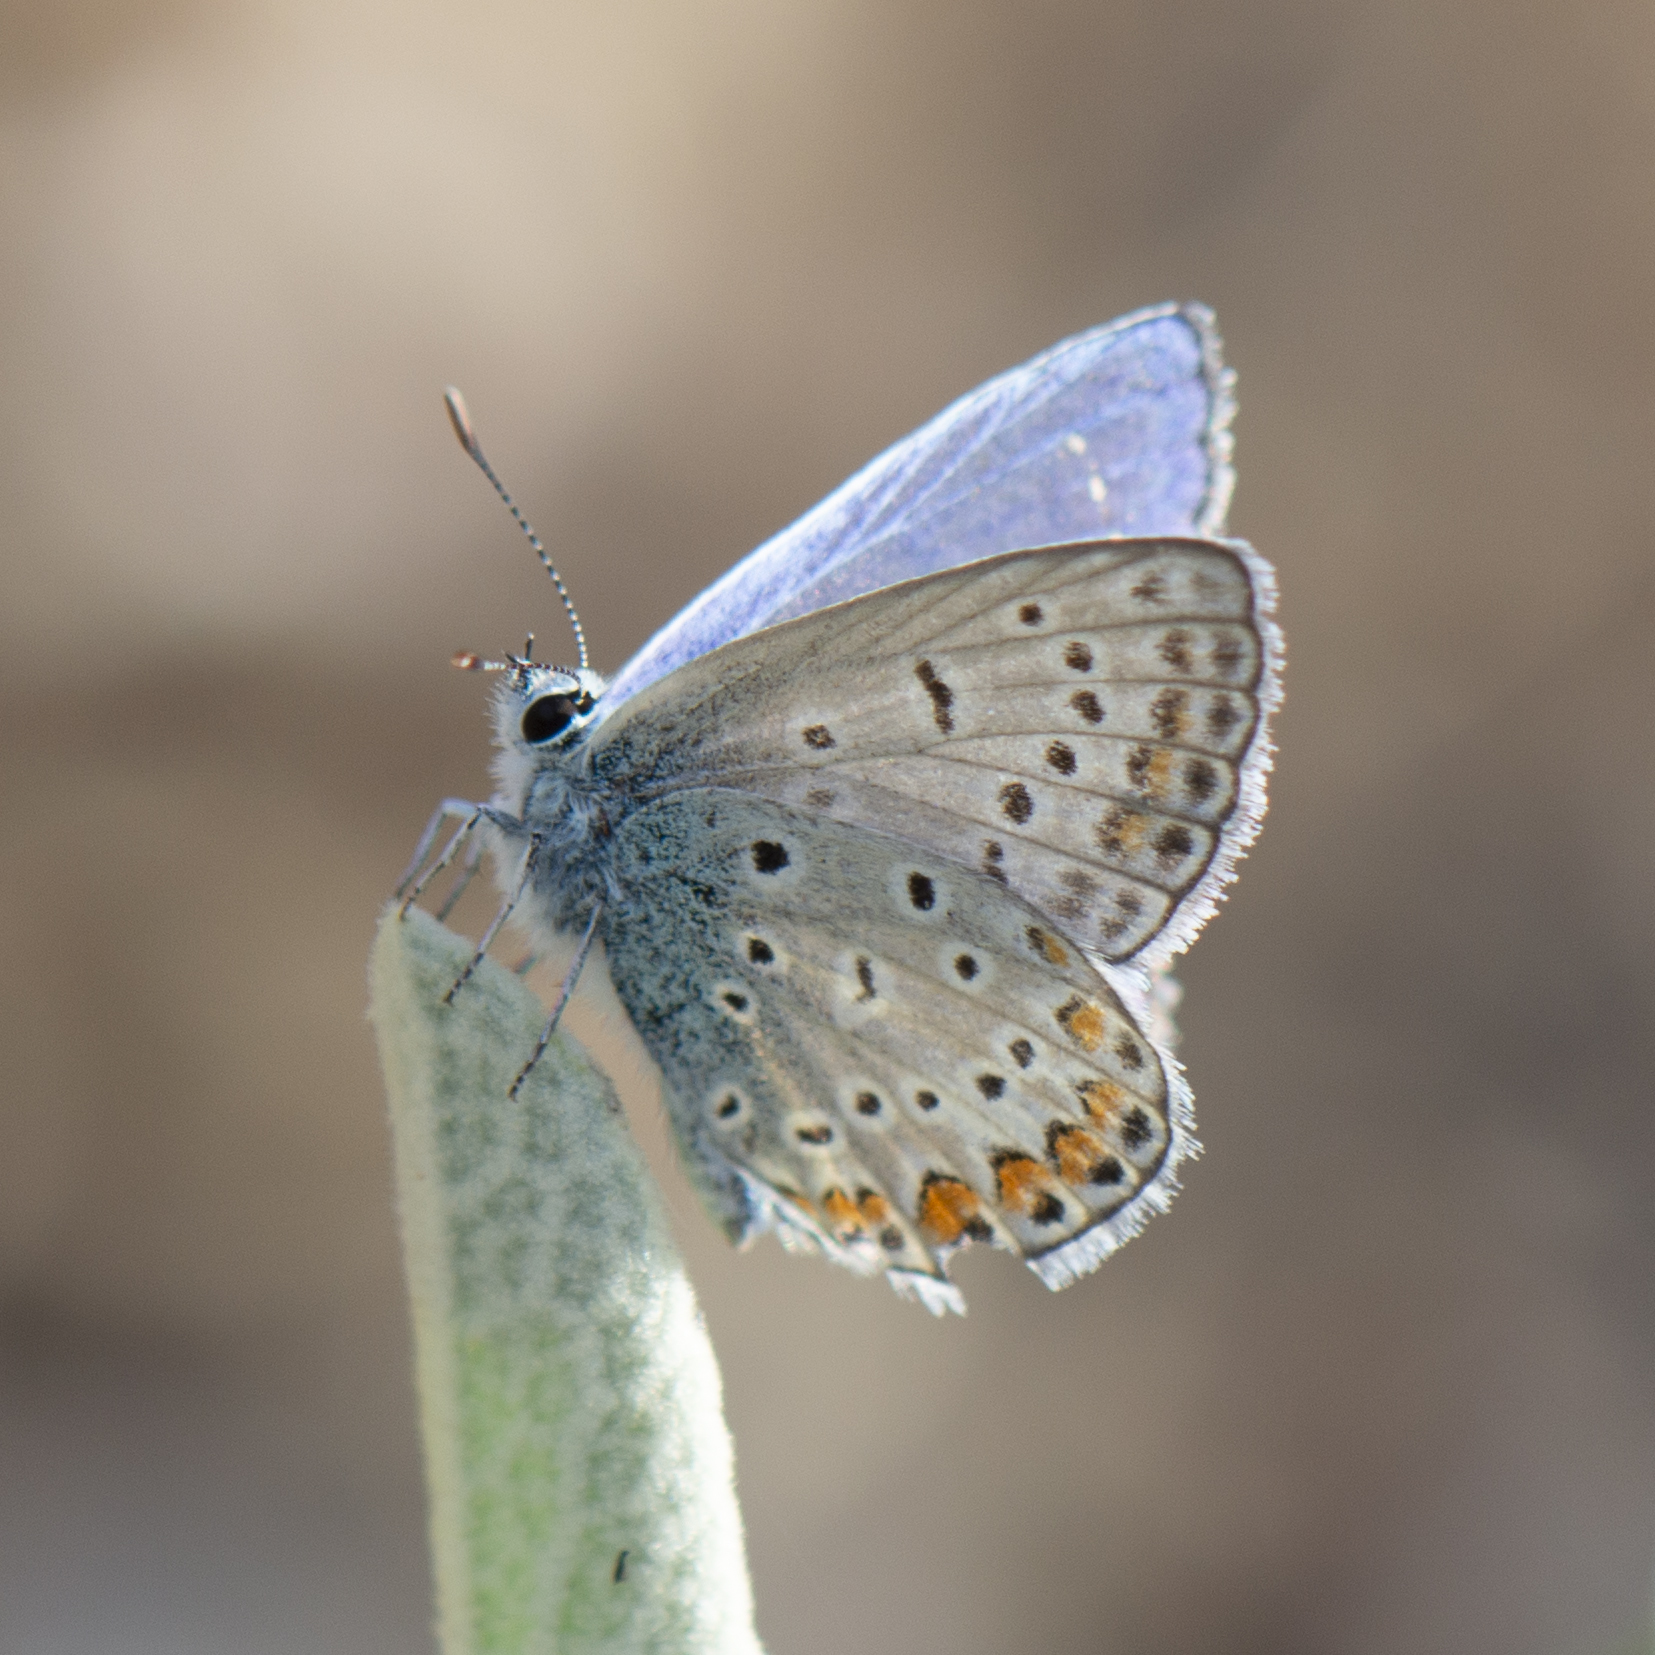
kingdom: Animalia
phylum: Arthropoda
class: Insecta
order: Lepidoptera
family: Lycaenidae
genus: Polyommatus
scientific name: Polyommatus icarus
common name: Common blue
